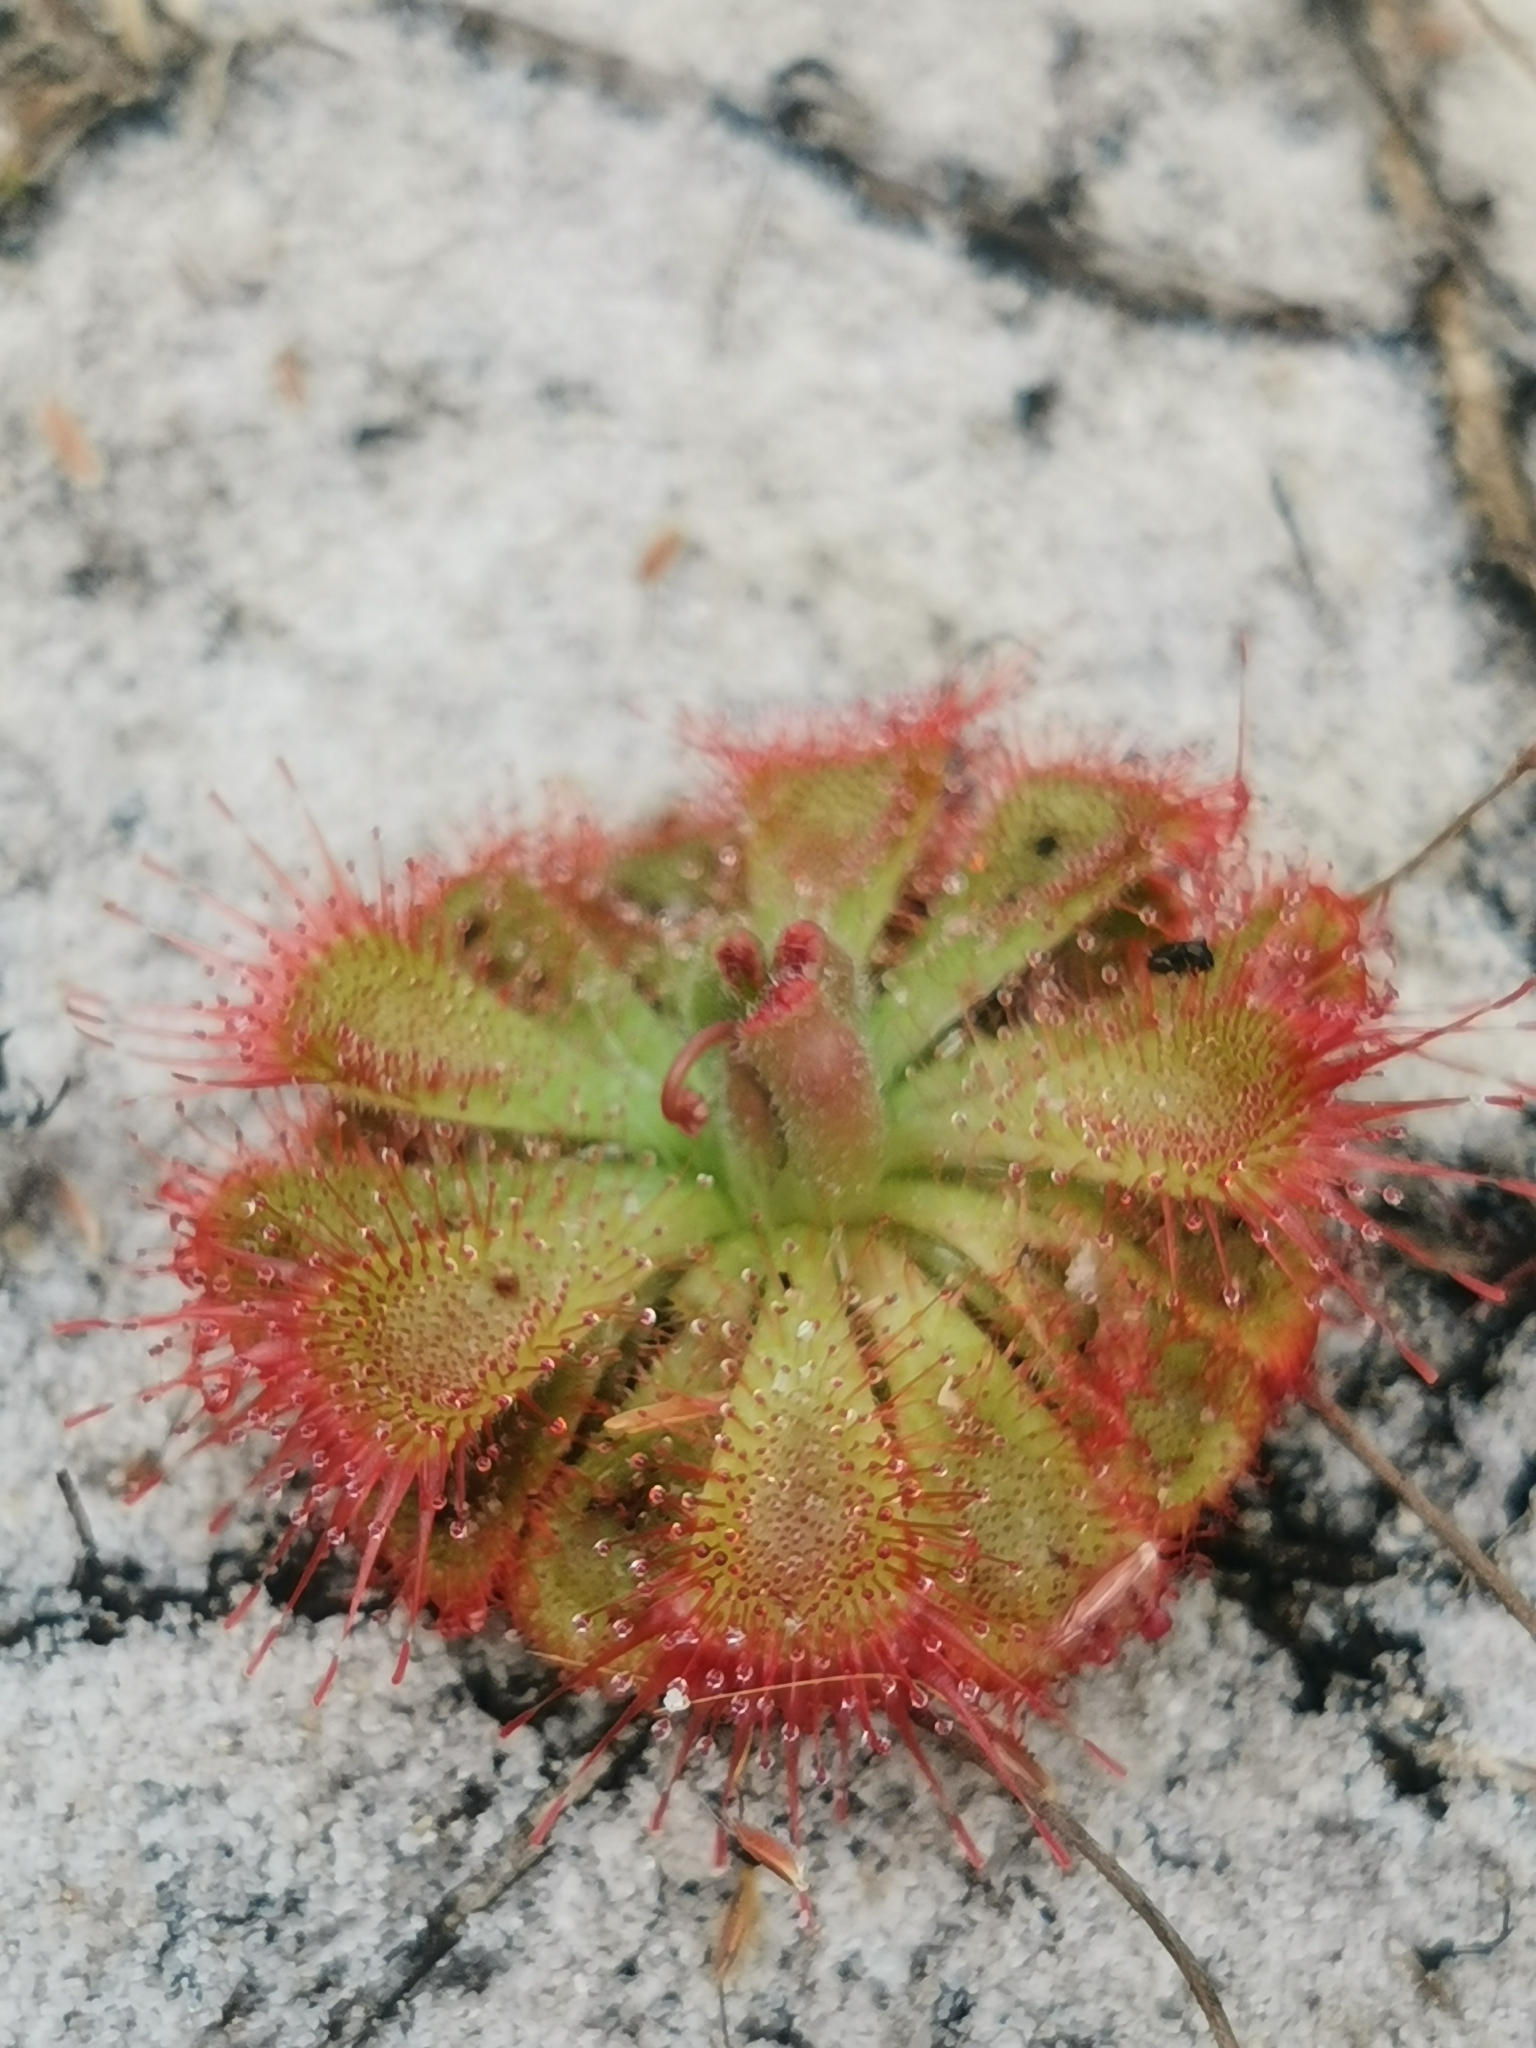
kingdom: Plantae
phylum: Tracheophyta
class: Magnoliopsida
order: Caryophyllales
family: Droseraceae
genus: Drosera
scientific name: Drosera spatulata
